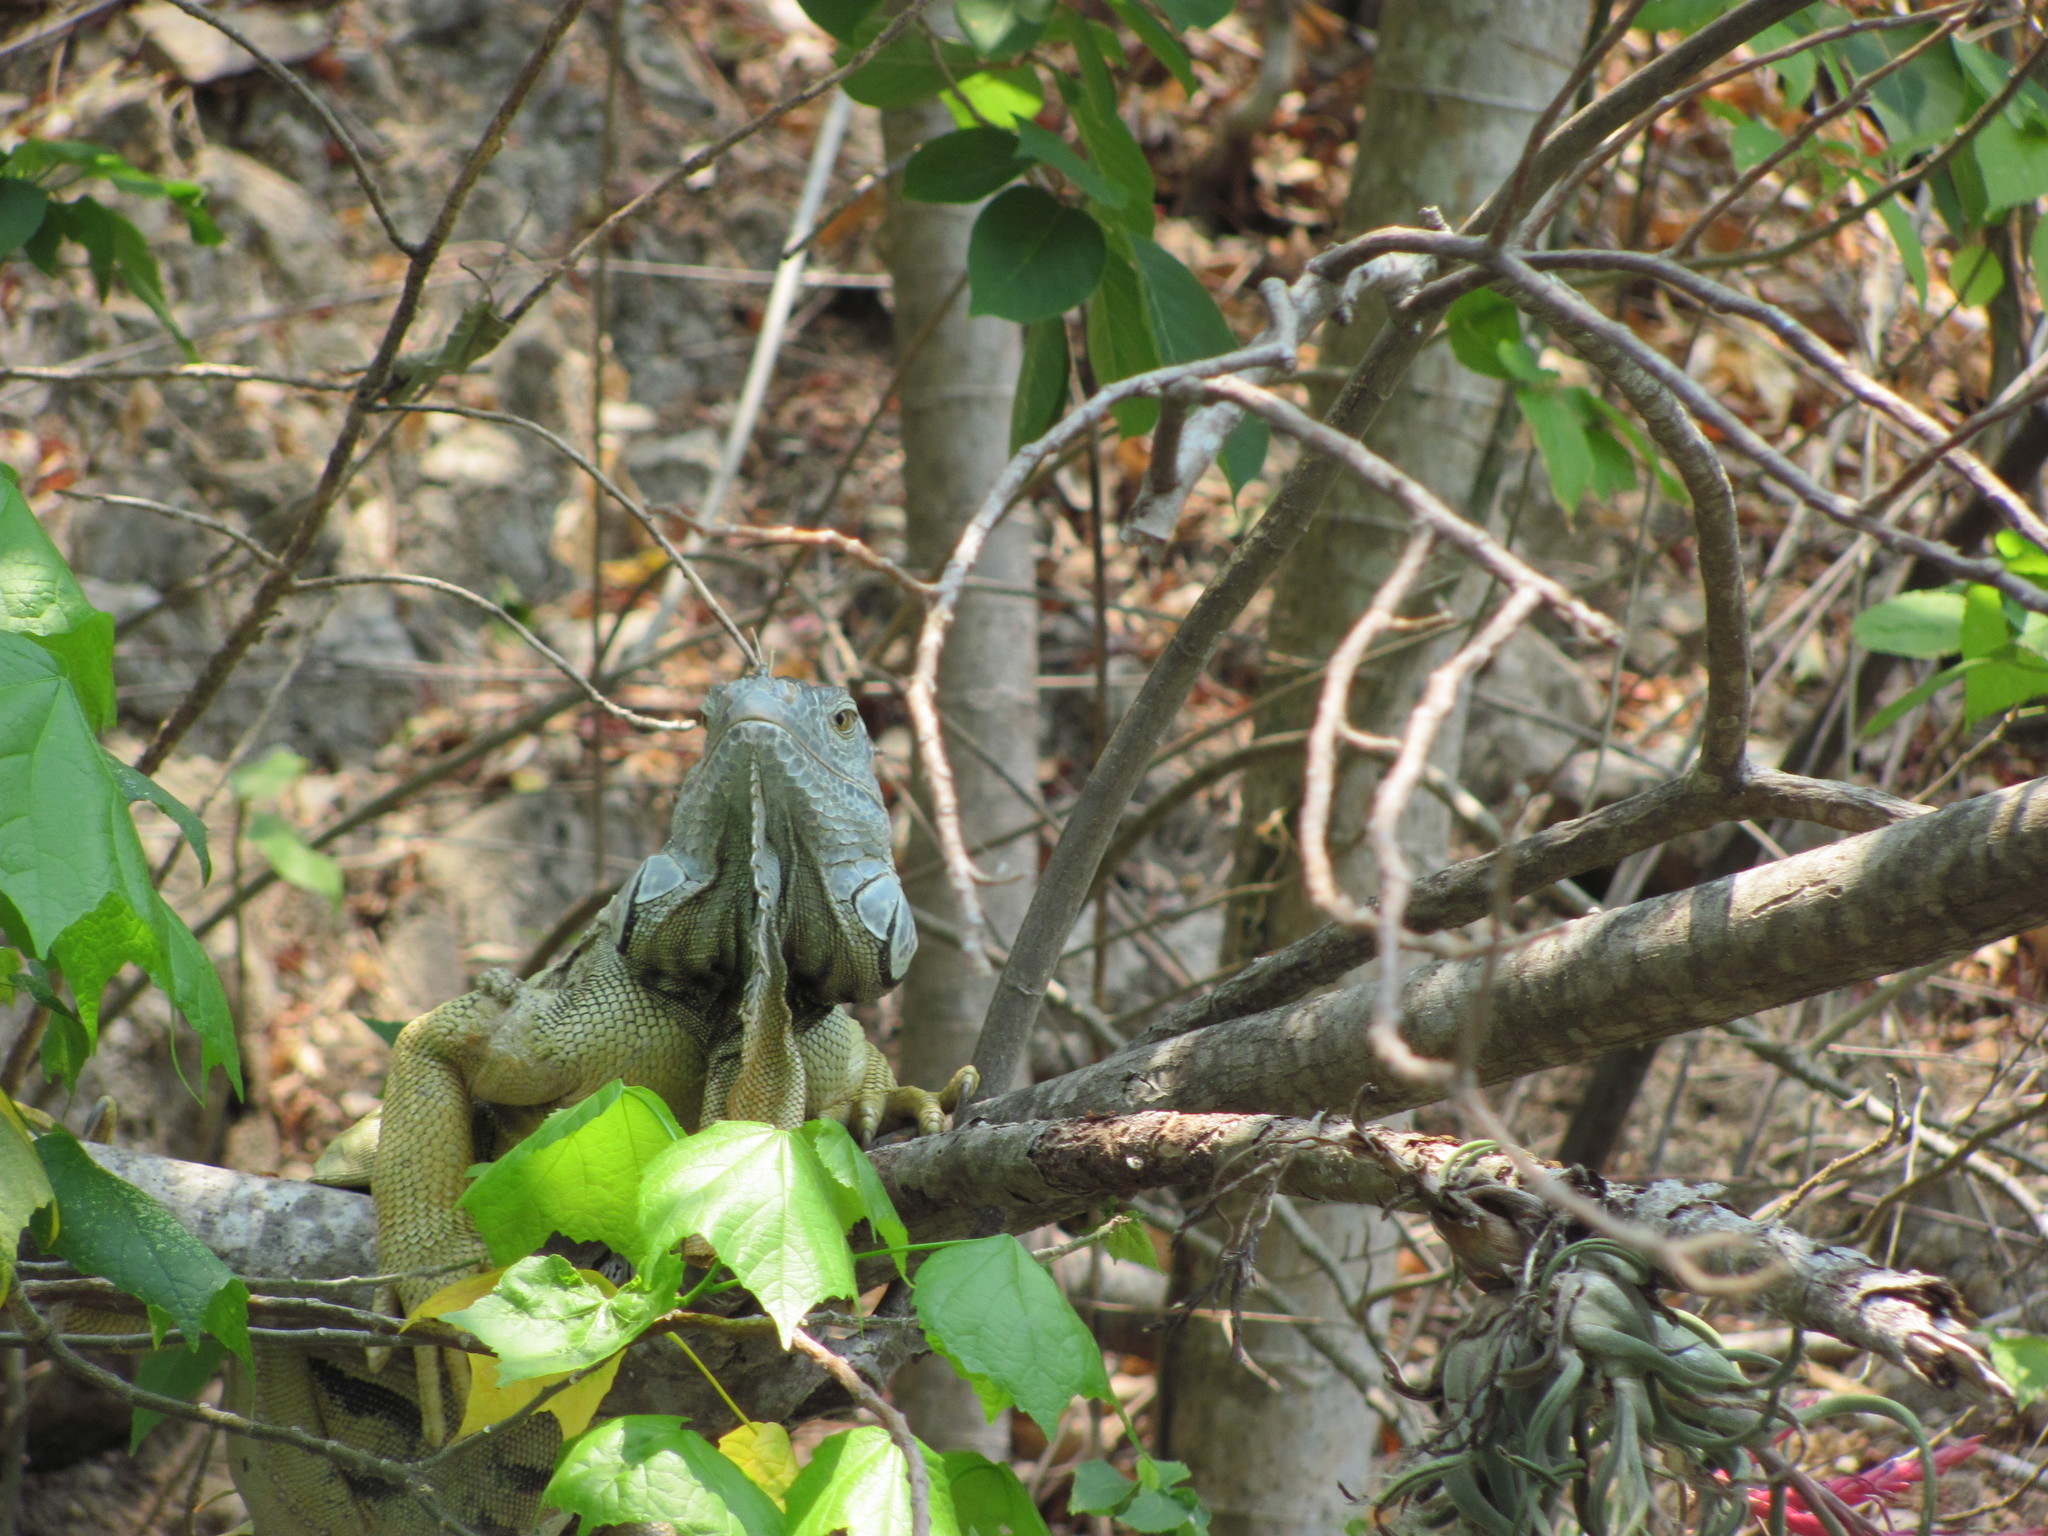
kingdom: Animalia
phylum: Chordata
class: Squamata
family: Iguanidae
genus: Iguana
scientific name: Iguana iguana
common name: Green iguana
